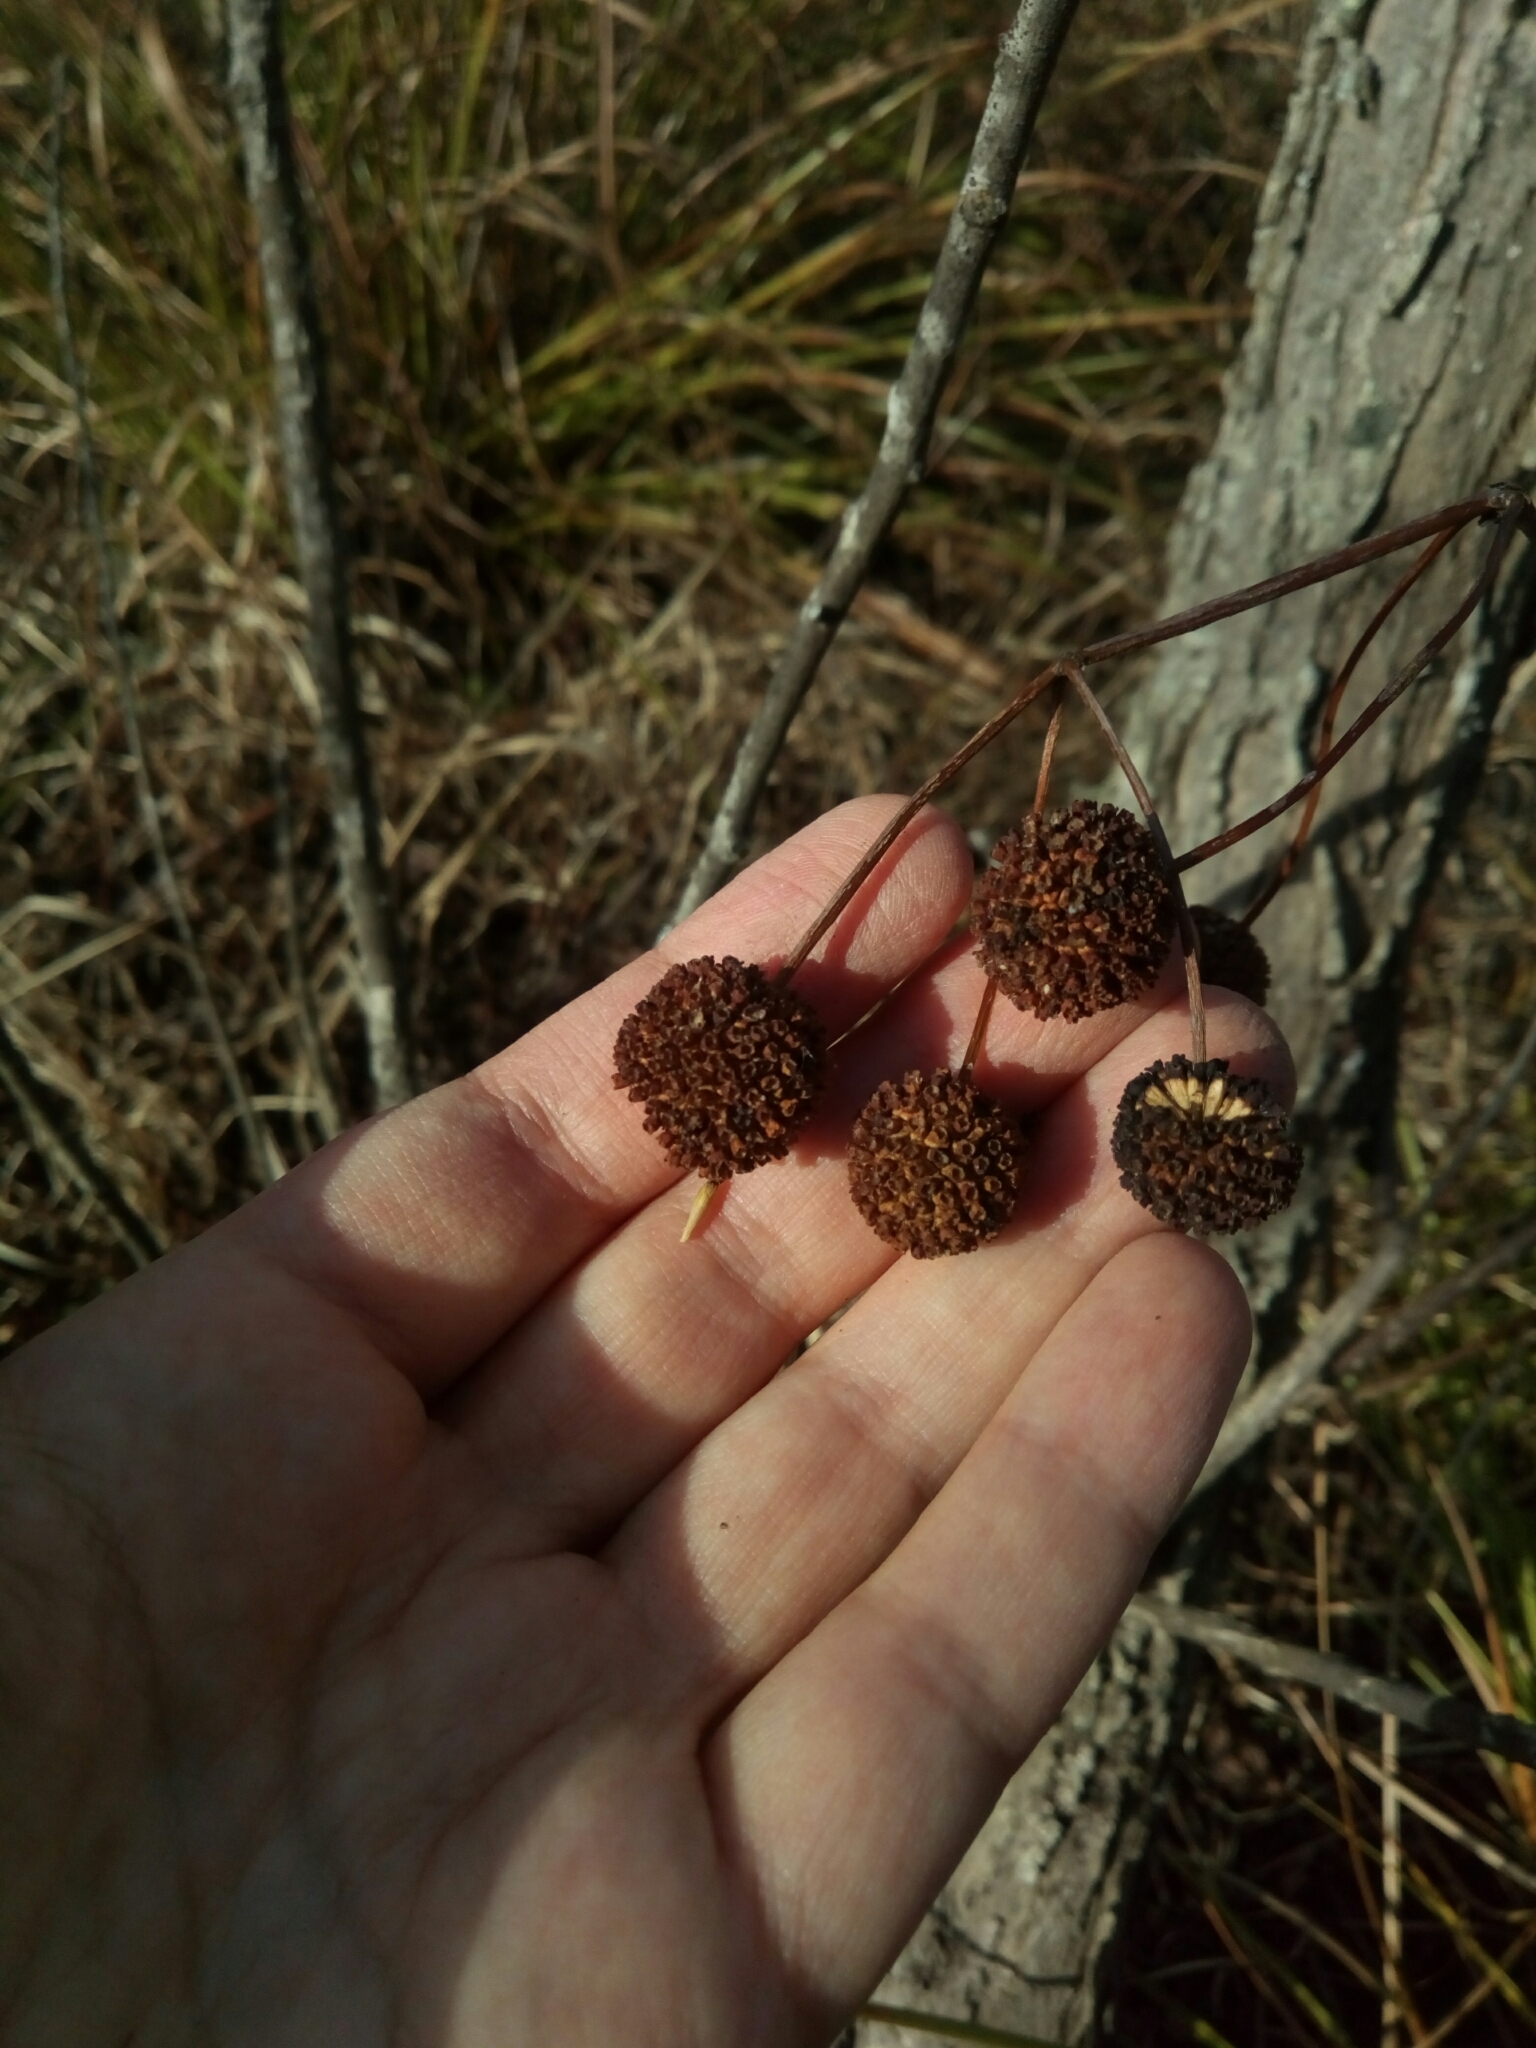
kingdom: Plantae
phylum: Tracheophyta
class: Magnoliopsida
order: Gentianales
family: Rubiaceae
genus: Cephalanthus
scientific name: Cephalanthus occidentalis
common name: Button-willow
